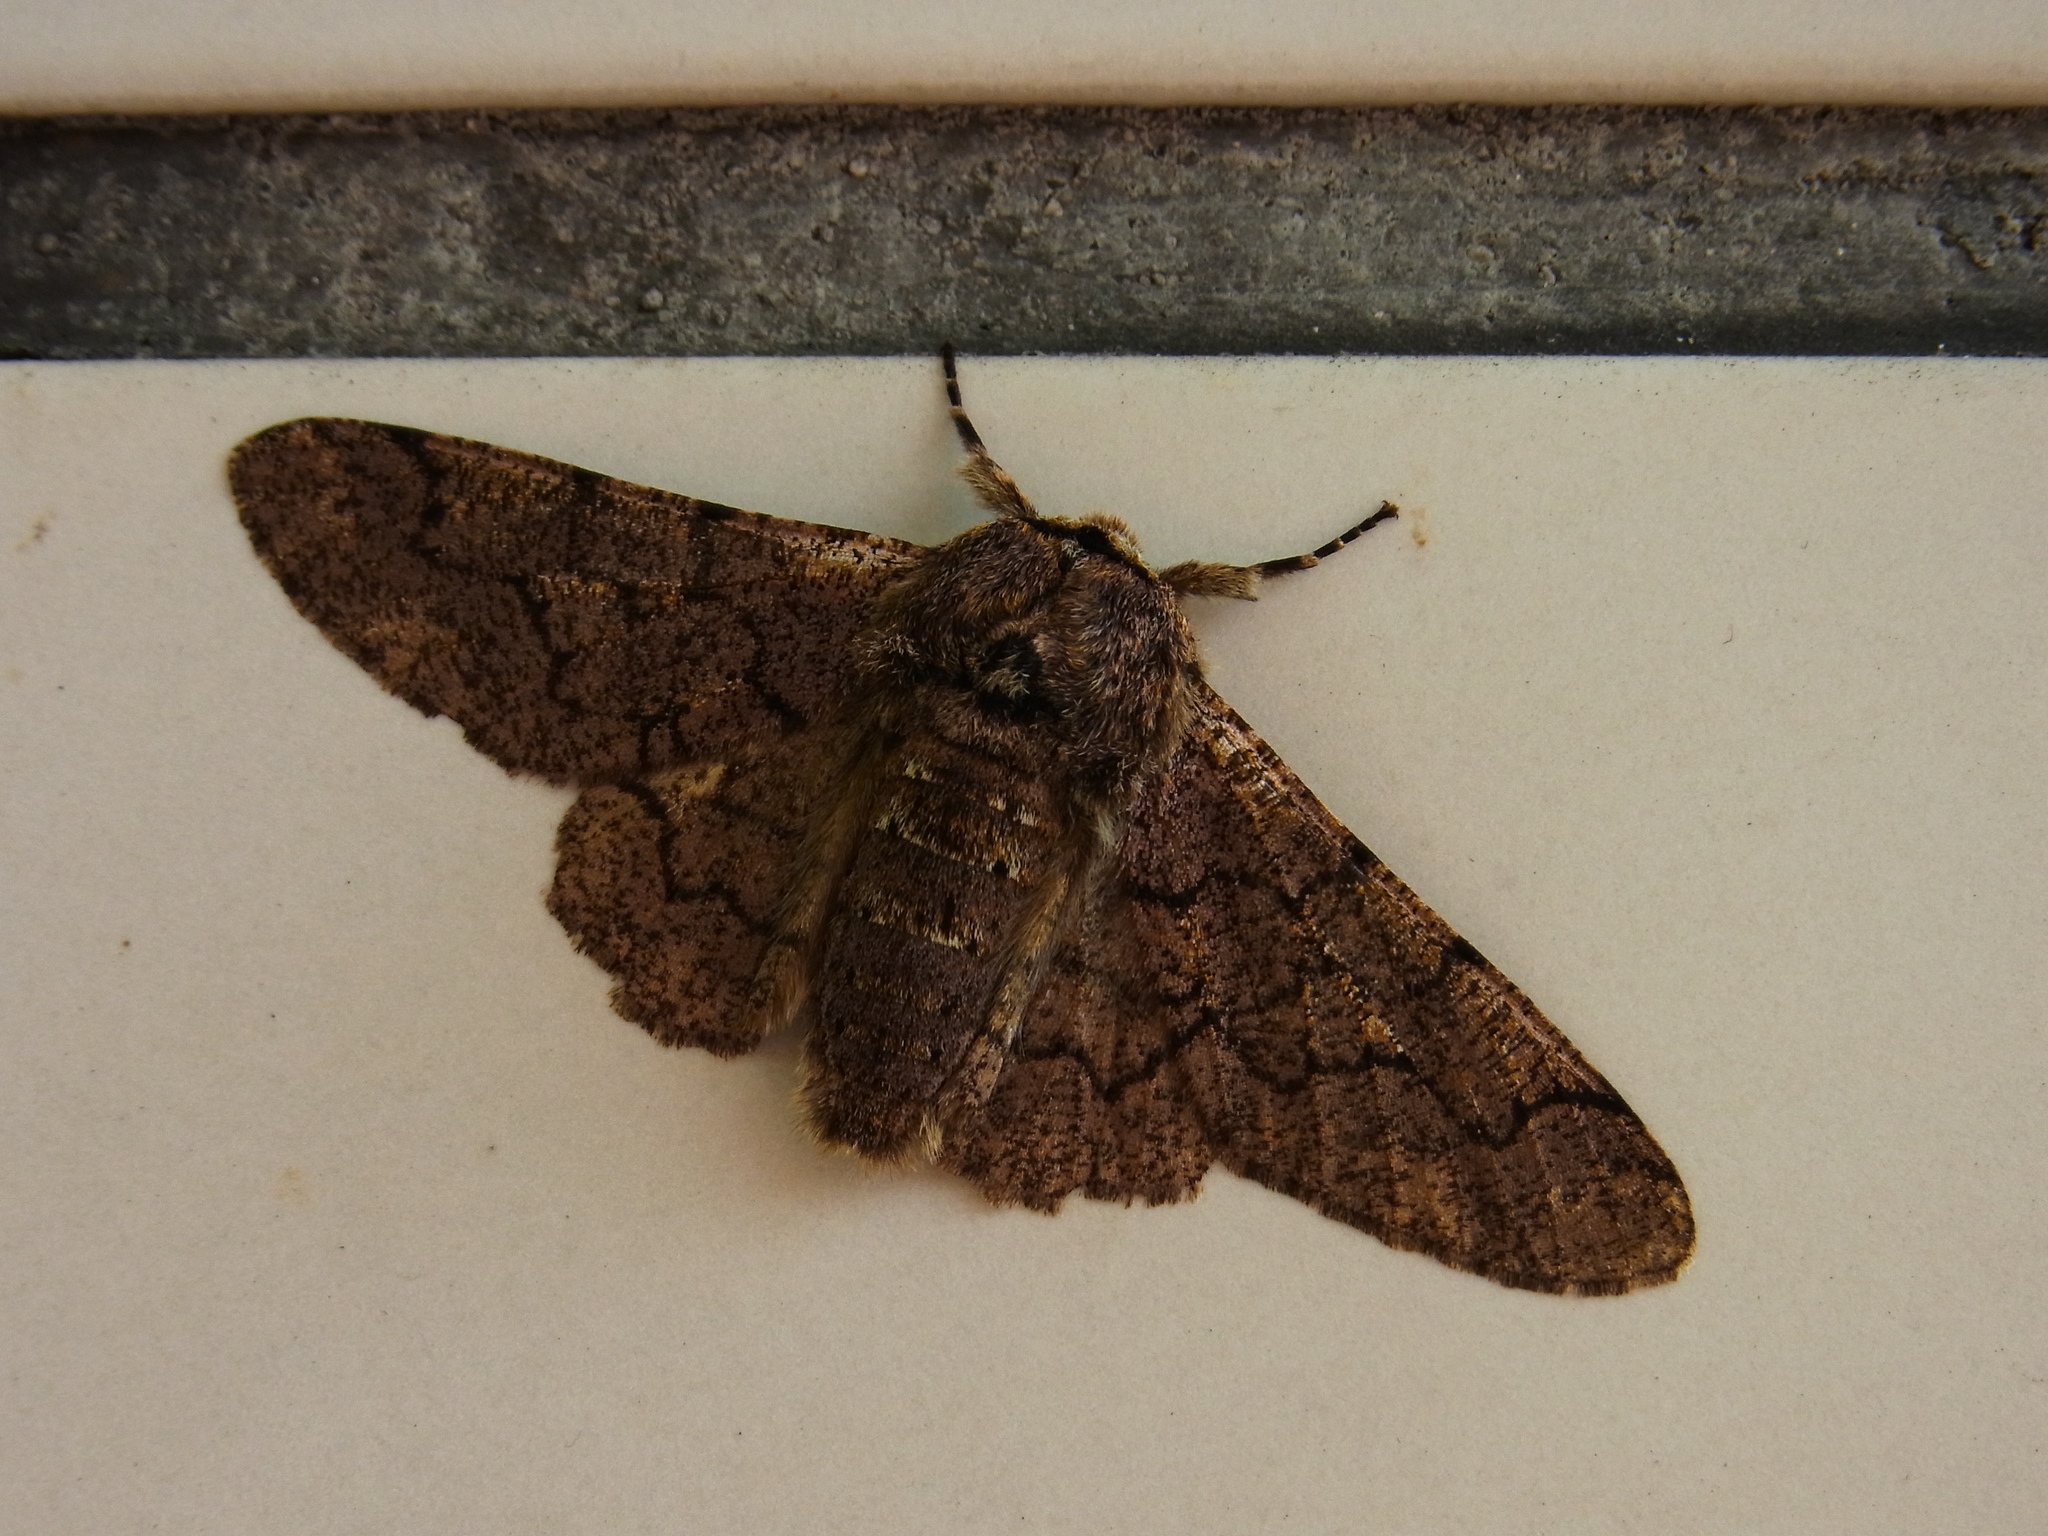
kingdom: Animalia
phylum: Arthropoda
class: Insecta
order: Lepidoptera
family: Geometridae
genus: Biston
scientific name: Biston robustum
